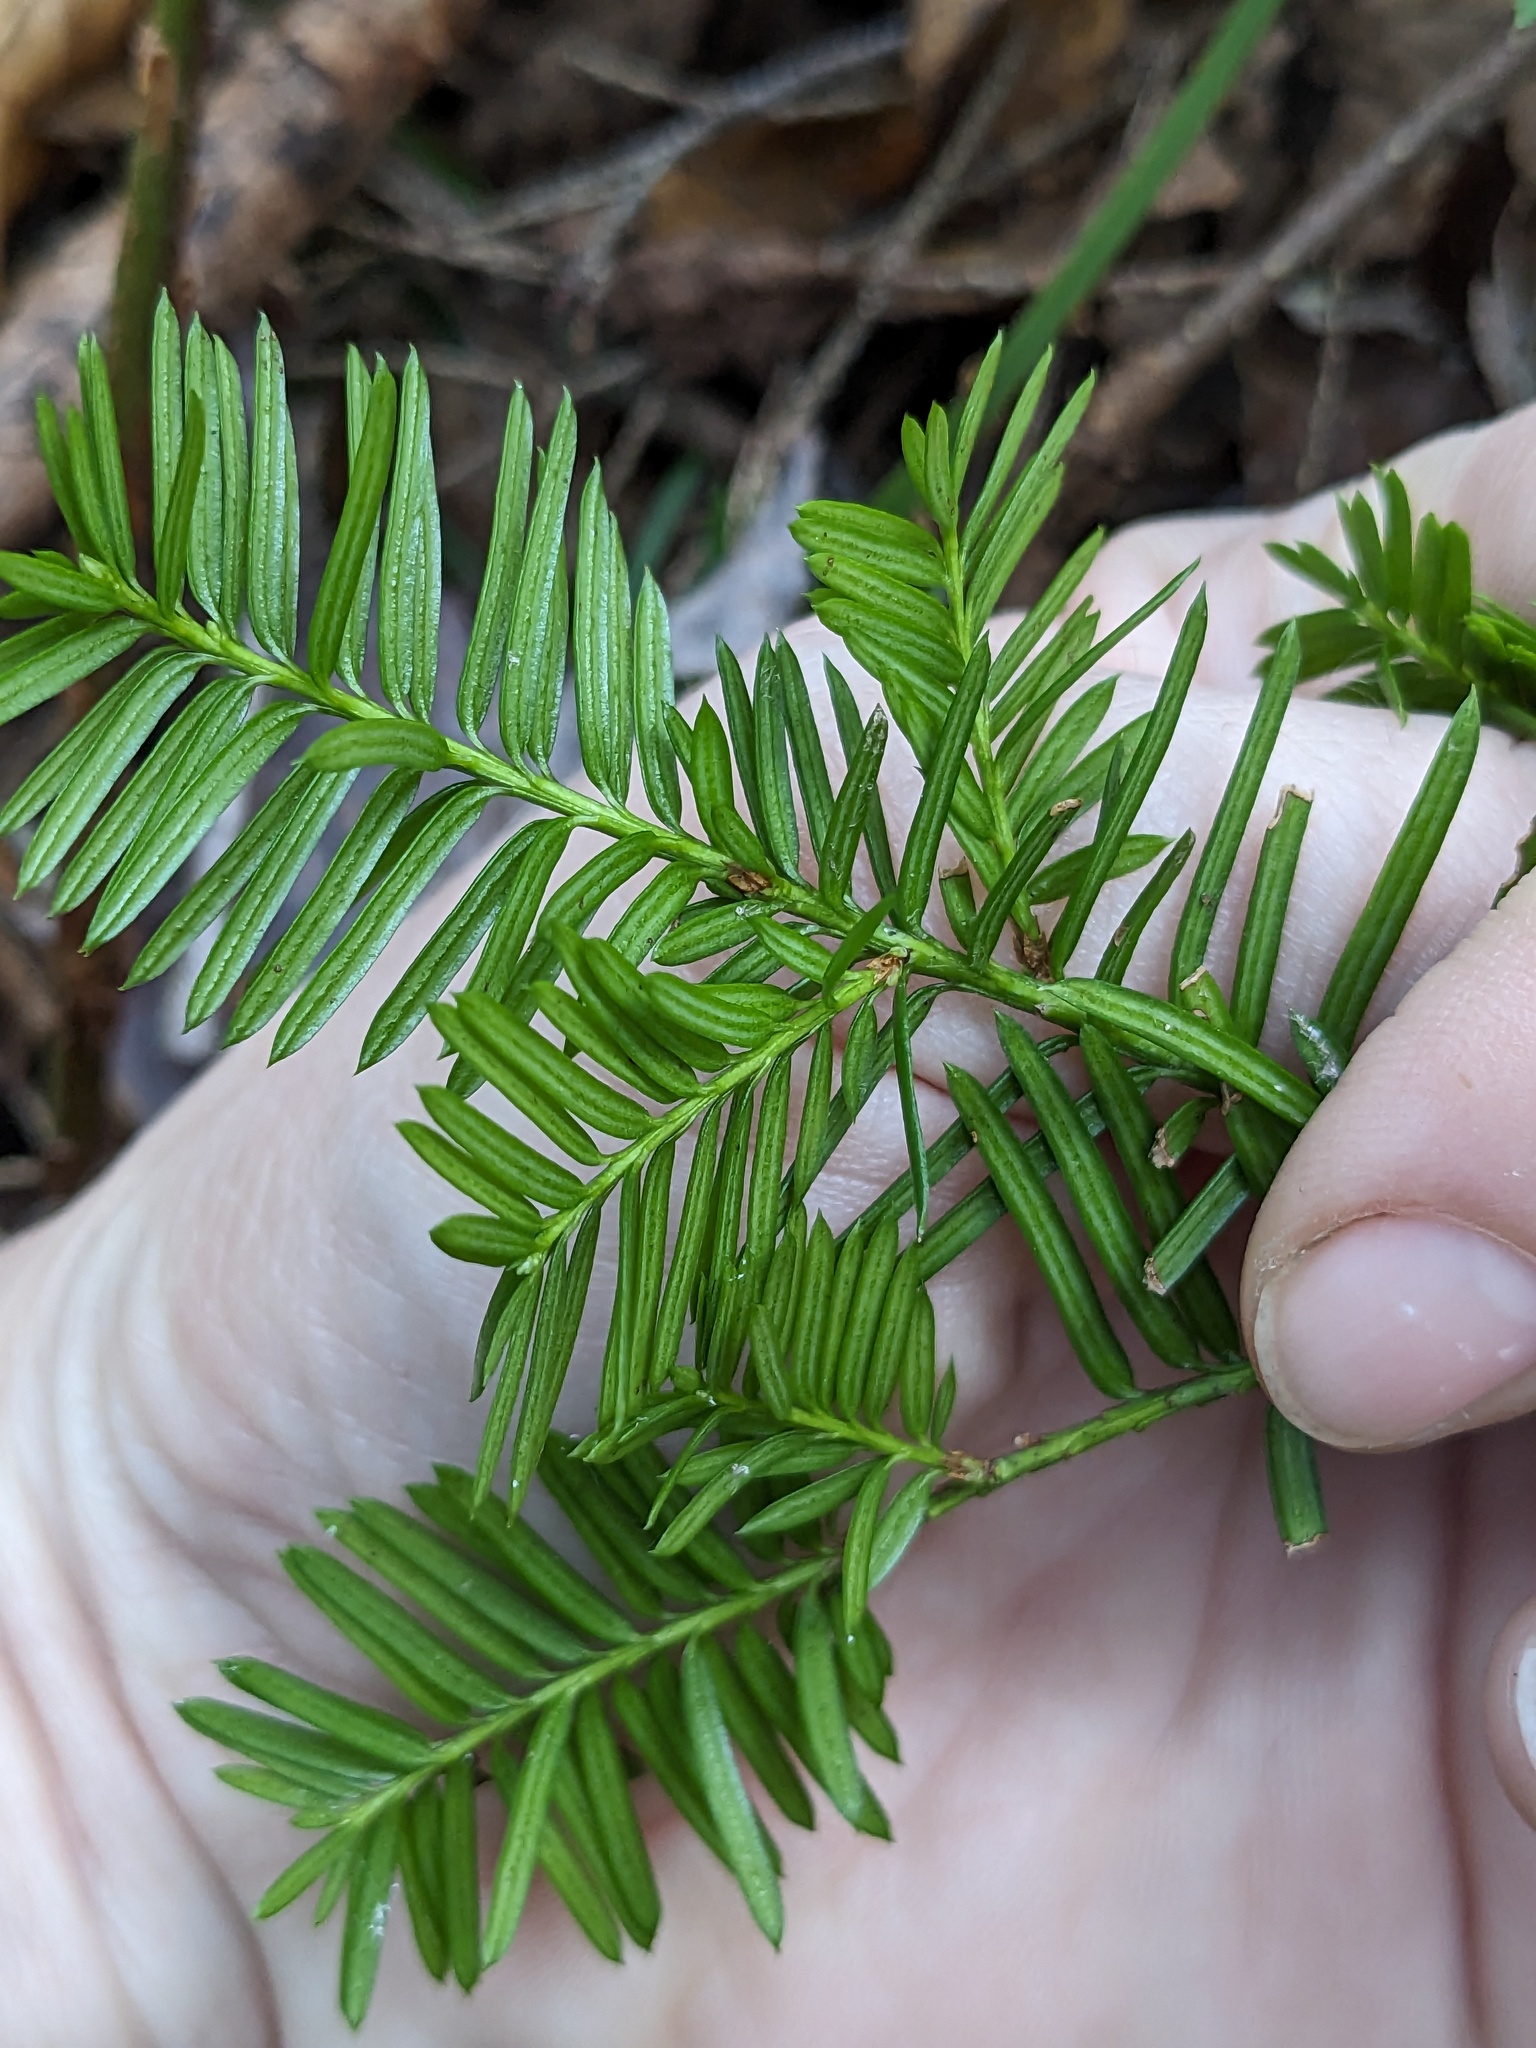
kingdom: Plantae
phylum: Tracheophyta
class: Pinopsida
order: Pinales
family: Taxaceae
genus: Taxus
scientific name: Taxus canadensis
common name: American yew
